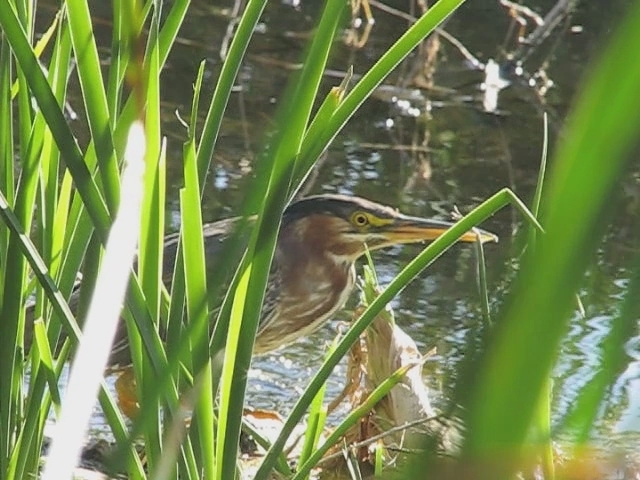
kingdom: Animalia
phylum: Chordata
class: Aves
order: Pelecaniformes
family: Ardeidae
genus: Butorides
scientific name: Butorides virescens
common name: Green heron
